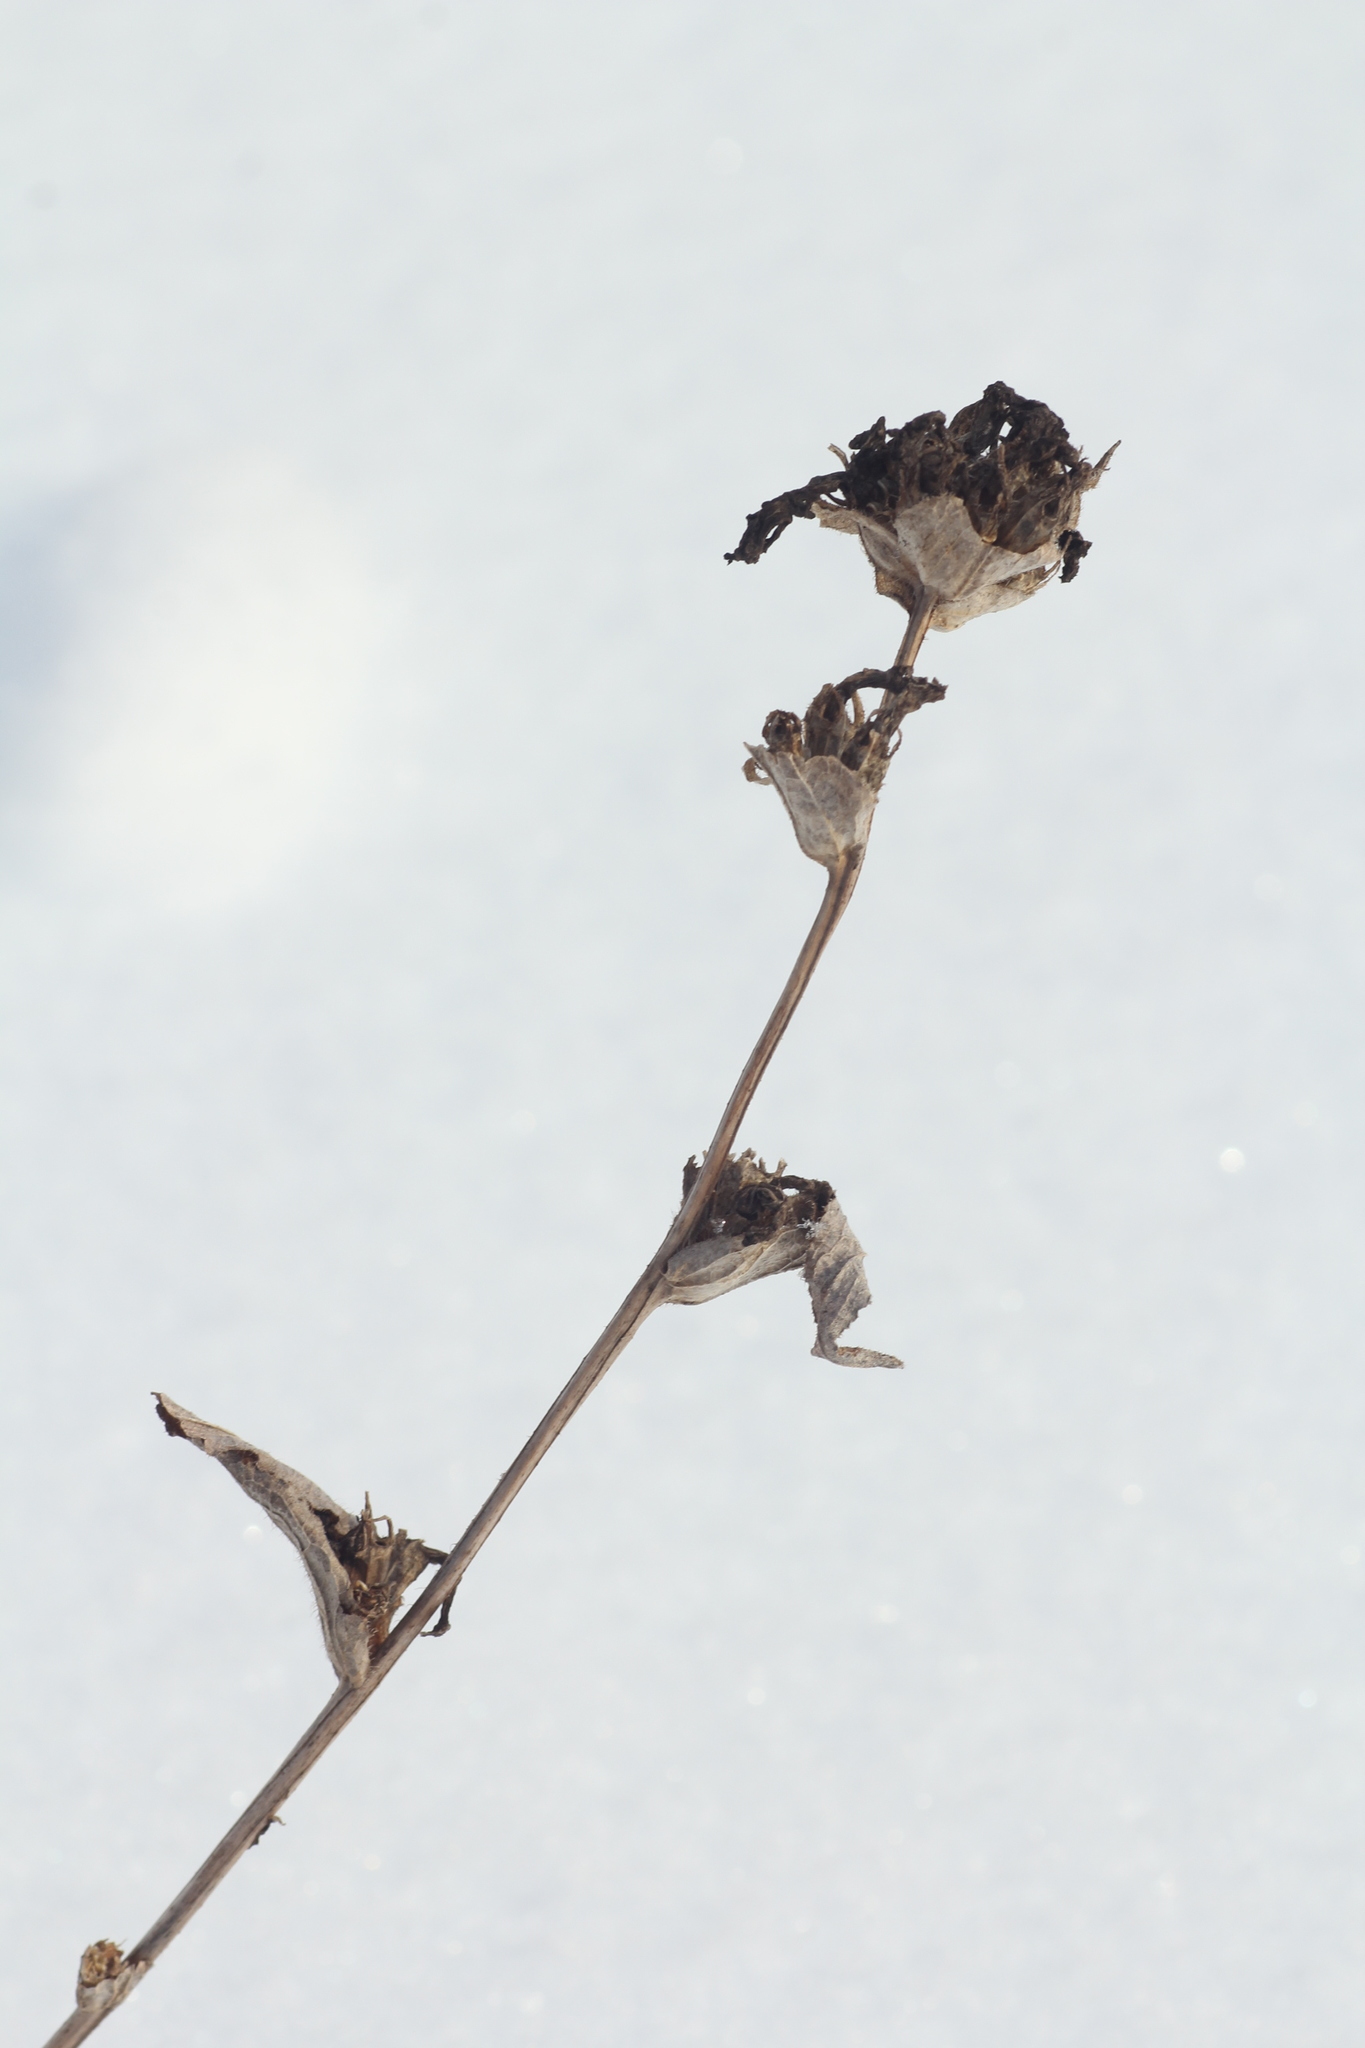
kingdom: Plantae
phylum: Tracheophyta
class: Magnoliopsida
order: Asterales
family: Campanulaceae
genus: Campanula
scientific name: Campanula glomerata
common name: Clustered bellflower
